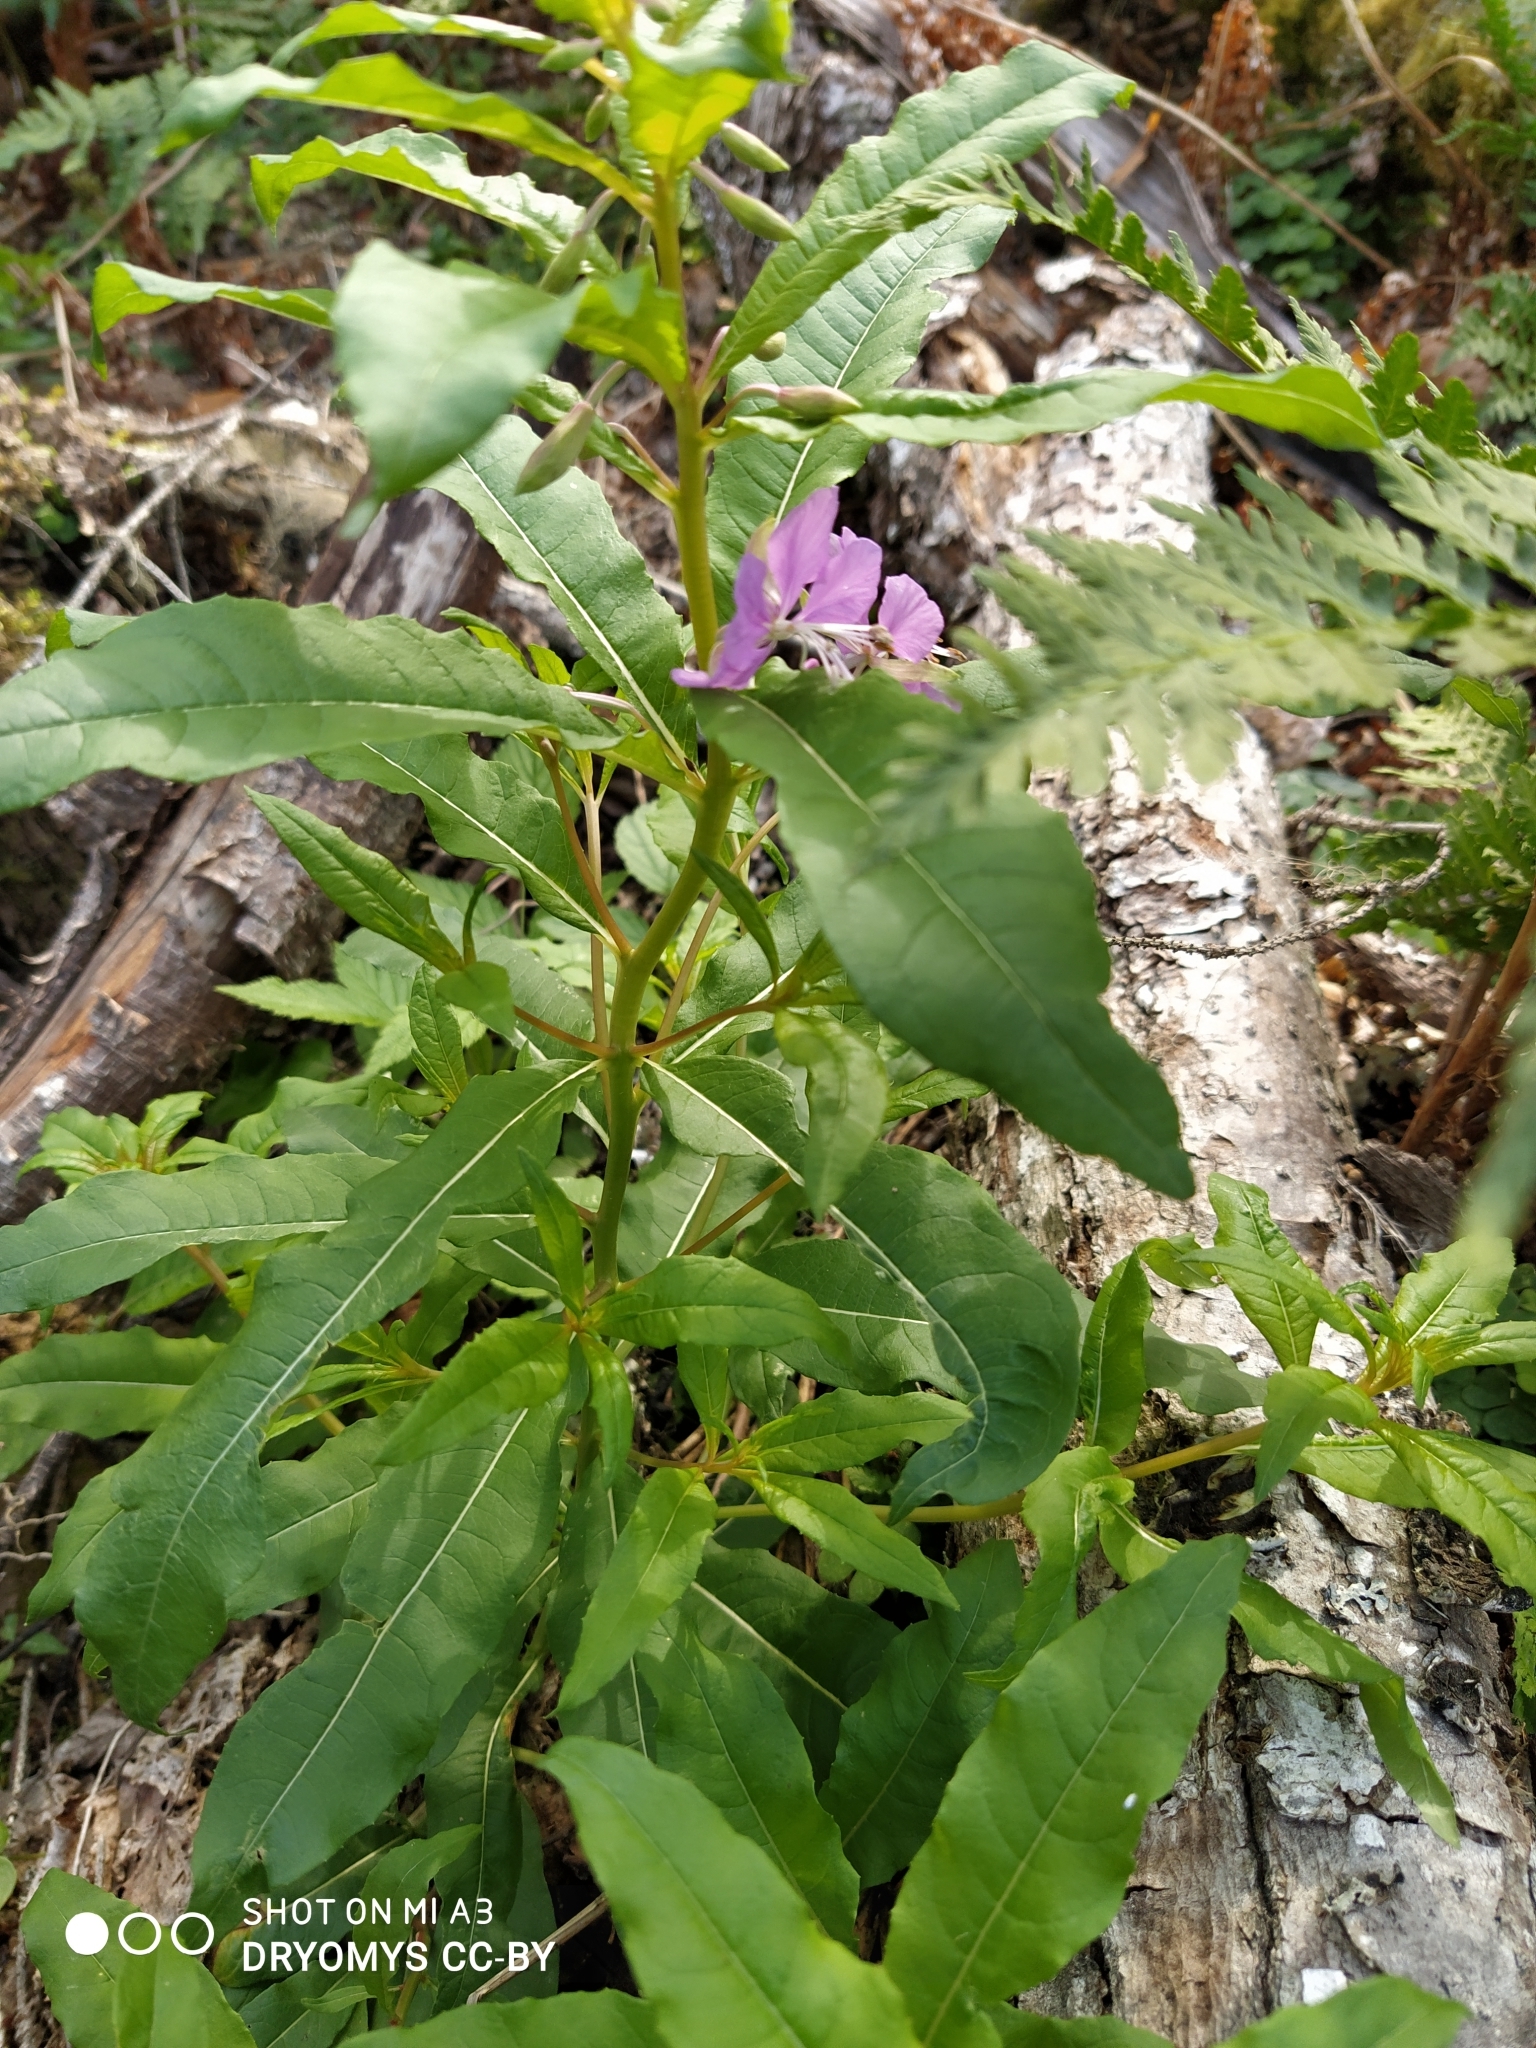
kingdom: Plantae
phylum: Tracheophyta
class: Magnoliopsida
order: Myrtales
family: Onagraceae
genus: Chamaenerion
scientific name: Chamaenerion angustifolium
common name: Fireweed
